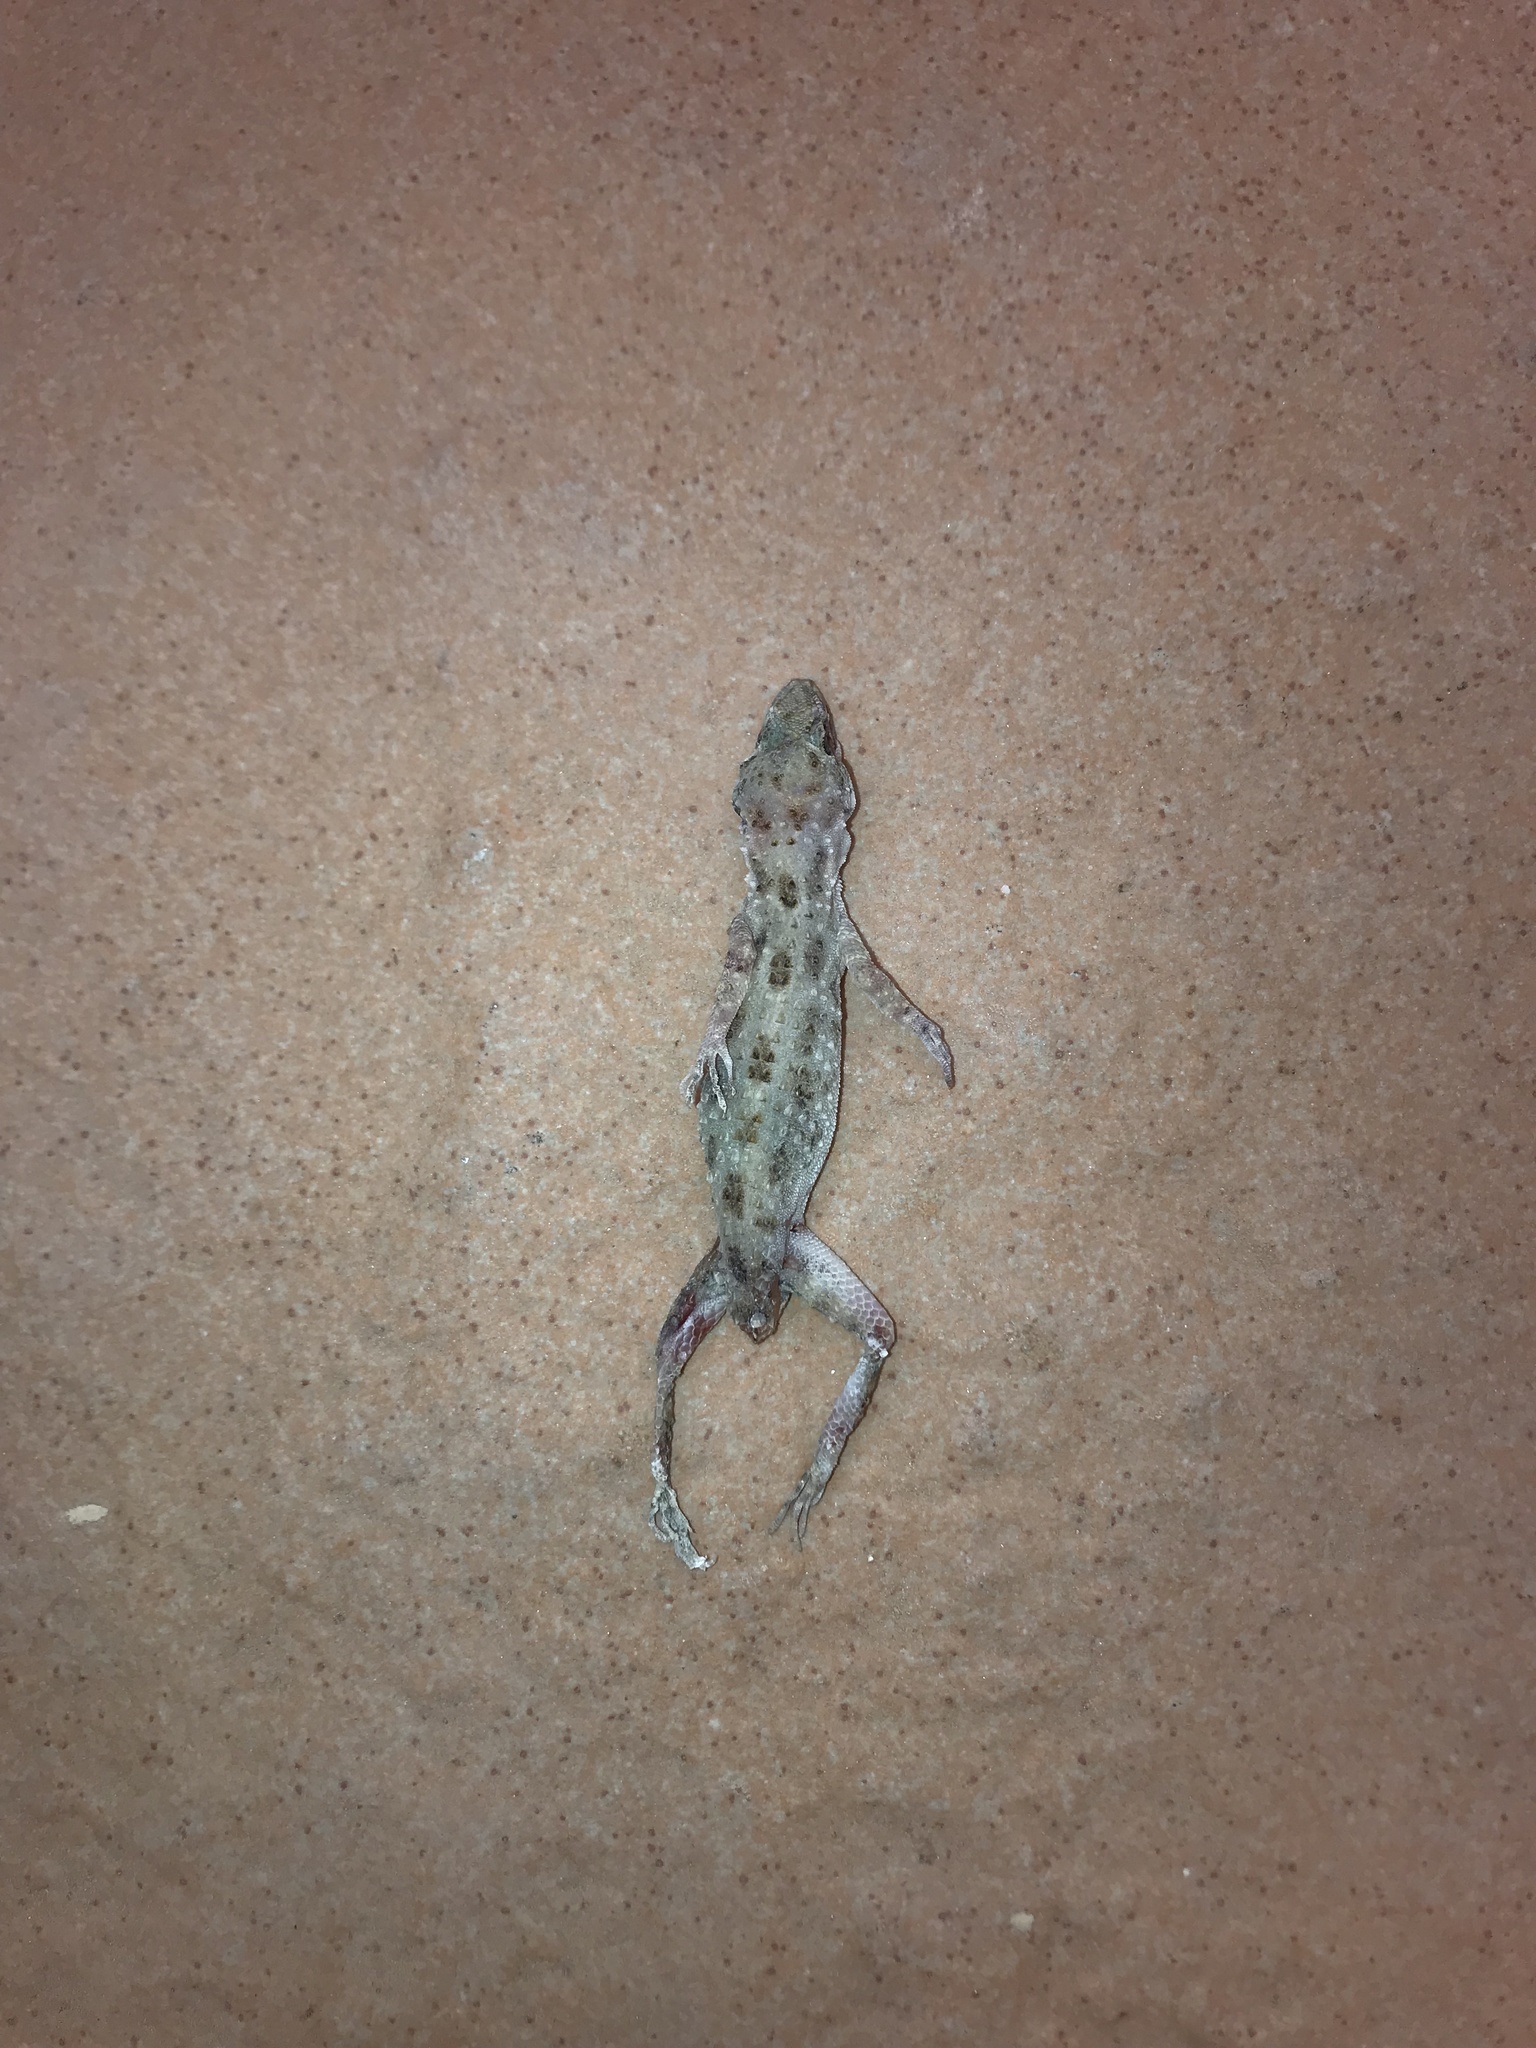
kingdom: Animalia
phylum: Chordata
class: Squamata
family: Gekkonidae
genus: Cyrtopodion
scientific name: Cyrtopodion scabrum
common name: Rough-tailed gecko
